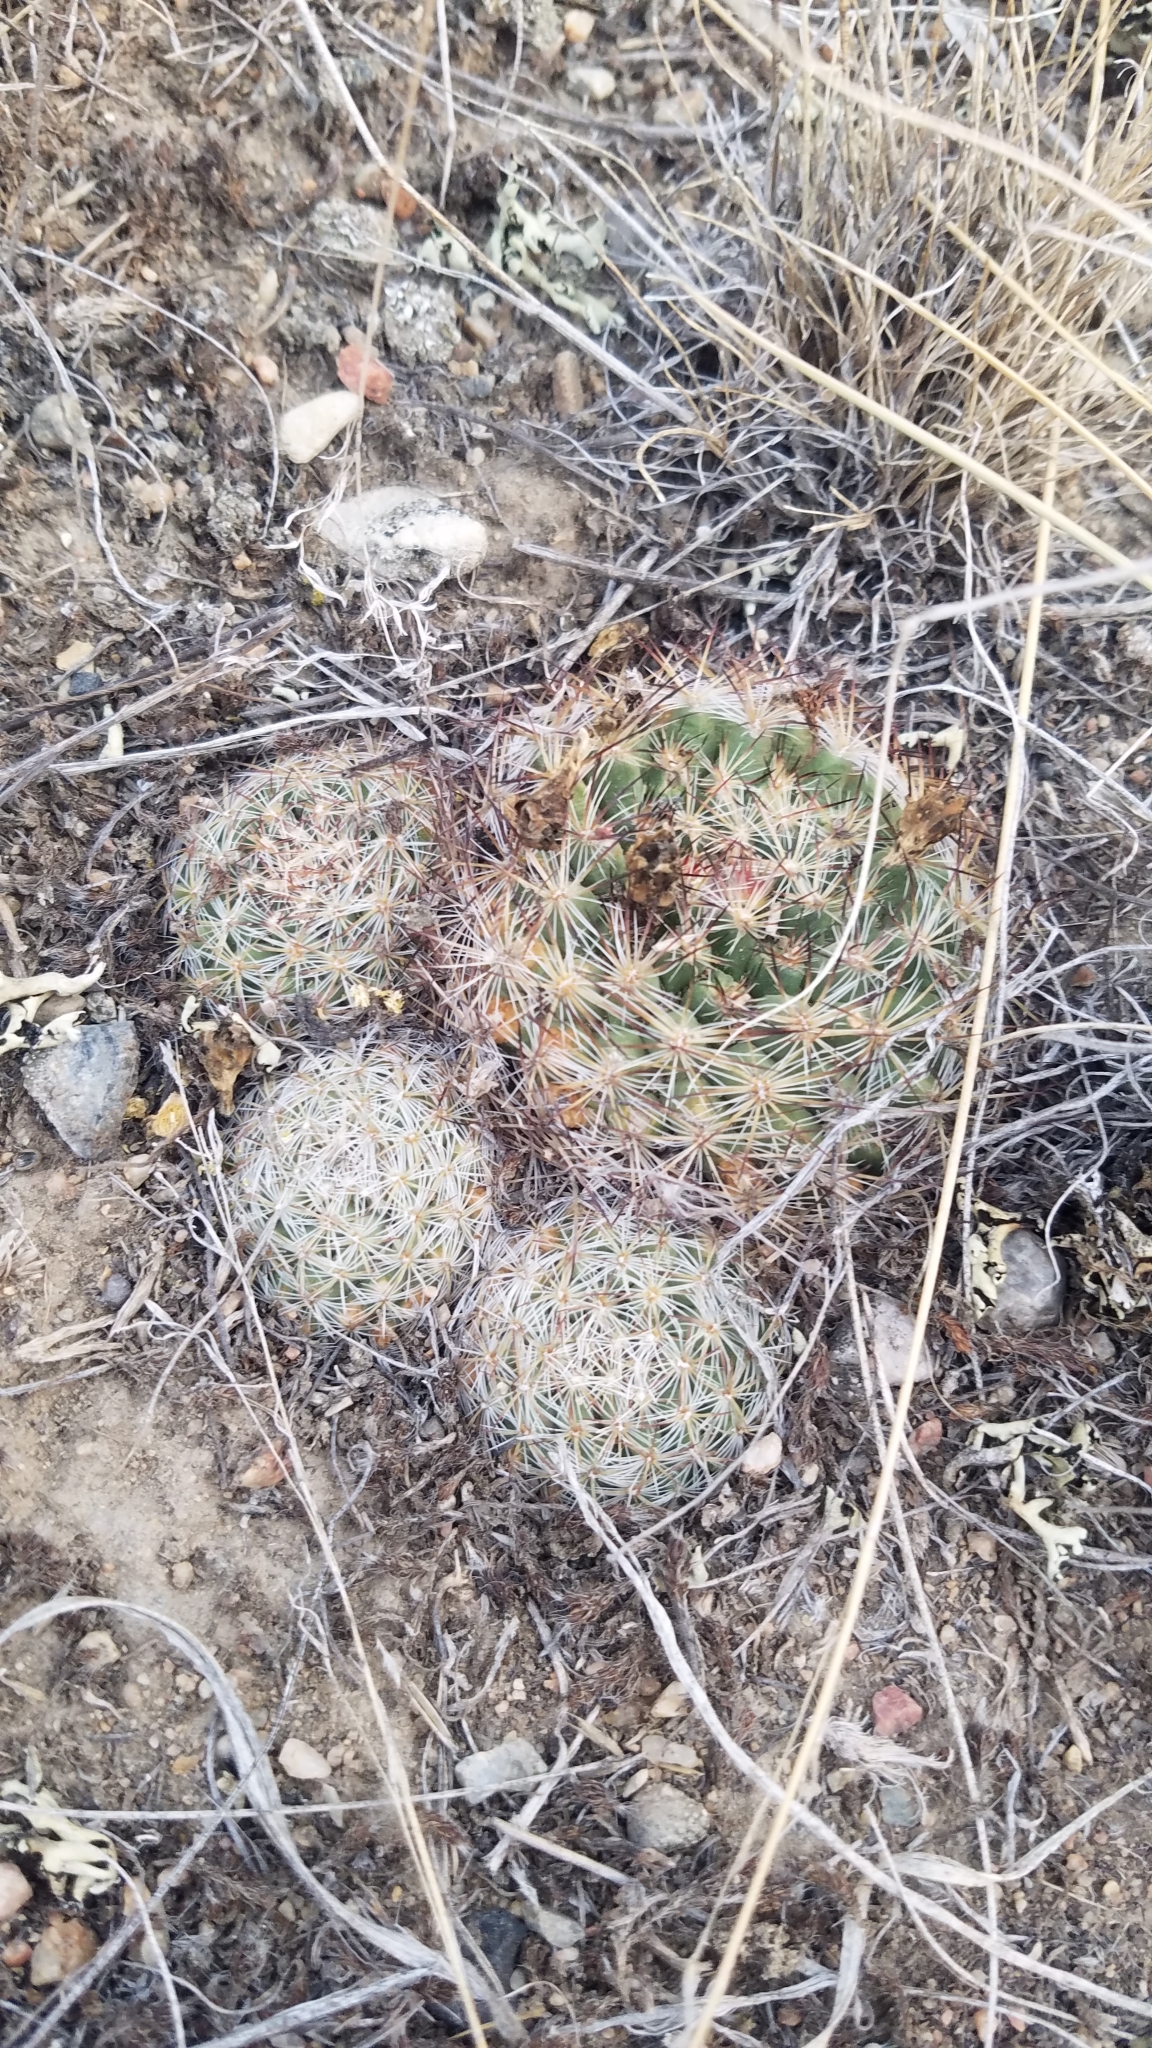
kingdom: Plantae
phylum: Tracheophyta
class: Magnoliopsida
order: Caryophyllales
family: Cactaceae
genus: Pediocactus
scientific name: Pediocactus simpsonii
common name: Simpson's hedgehog cactus
